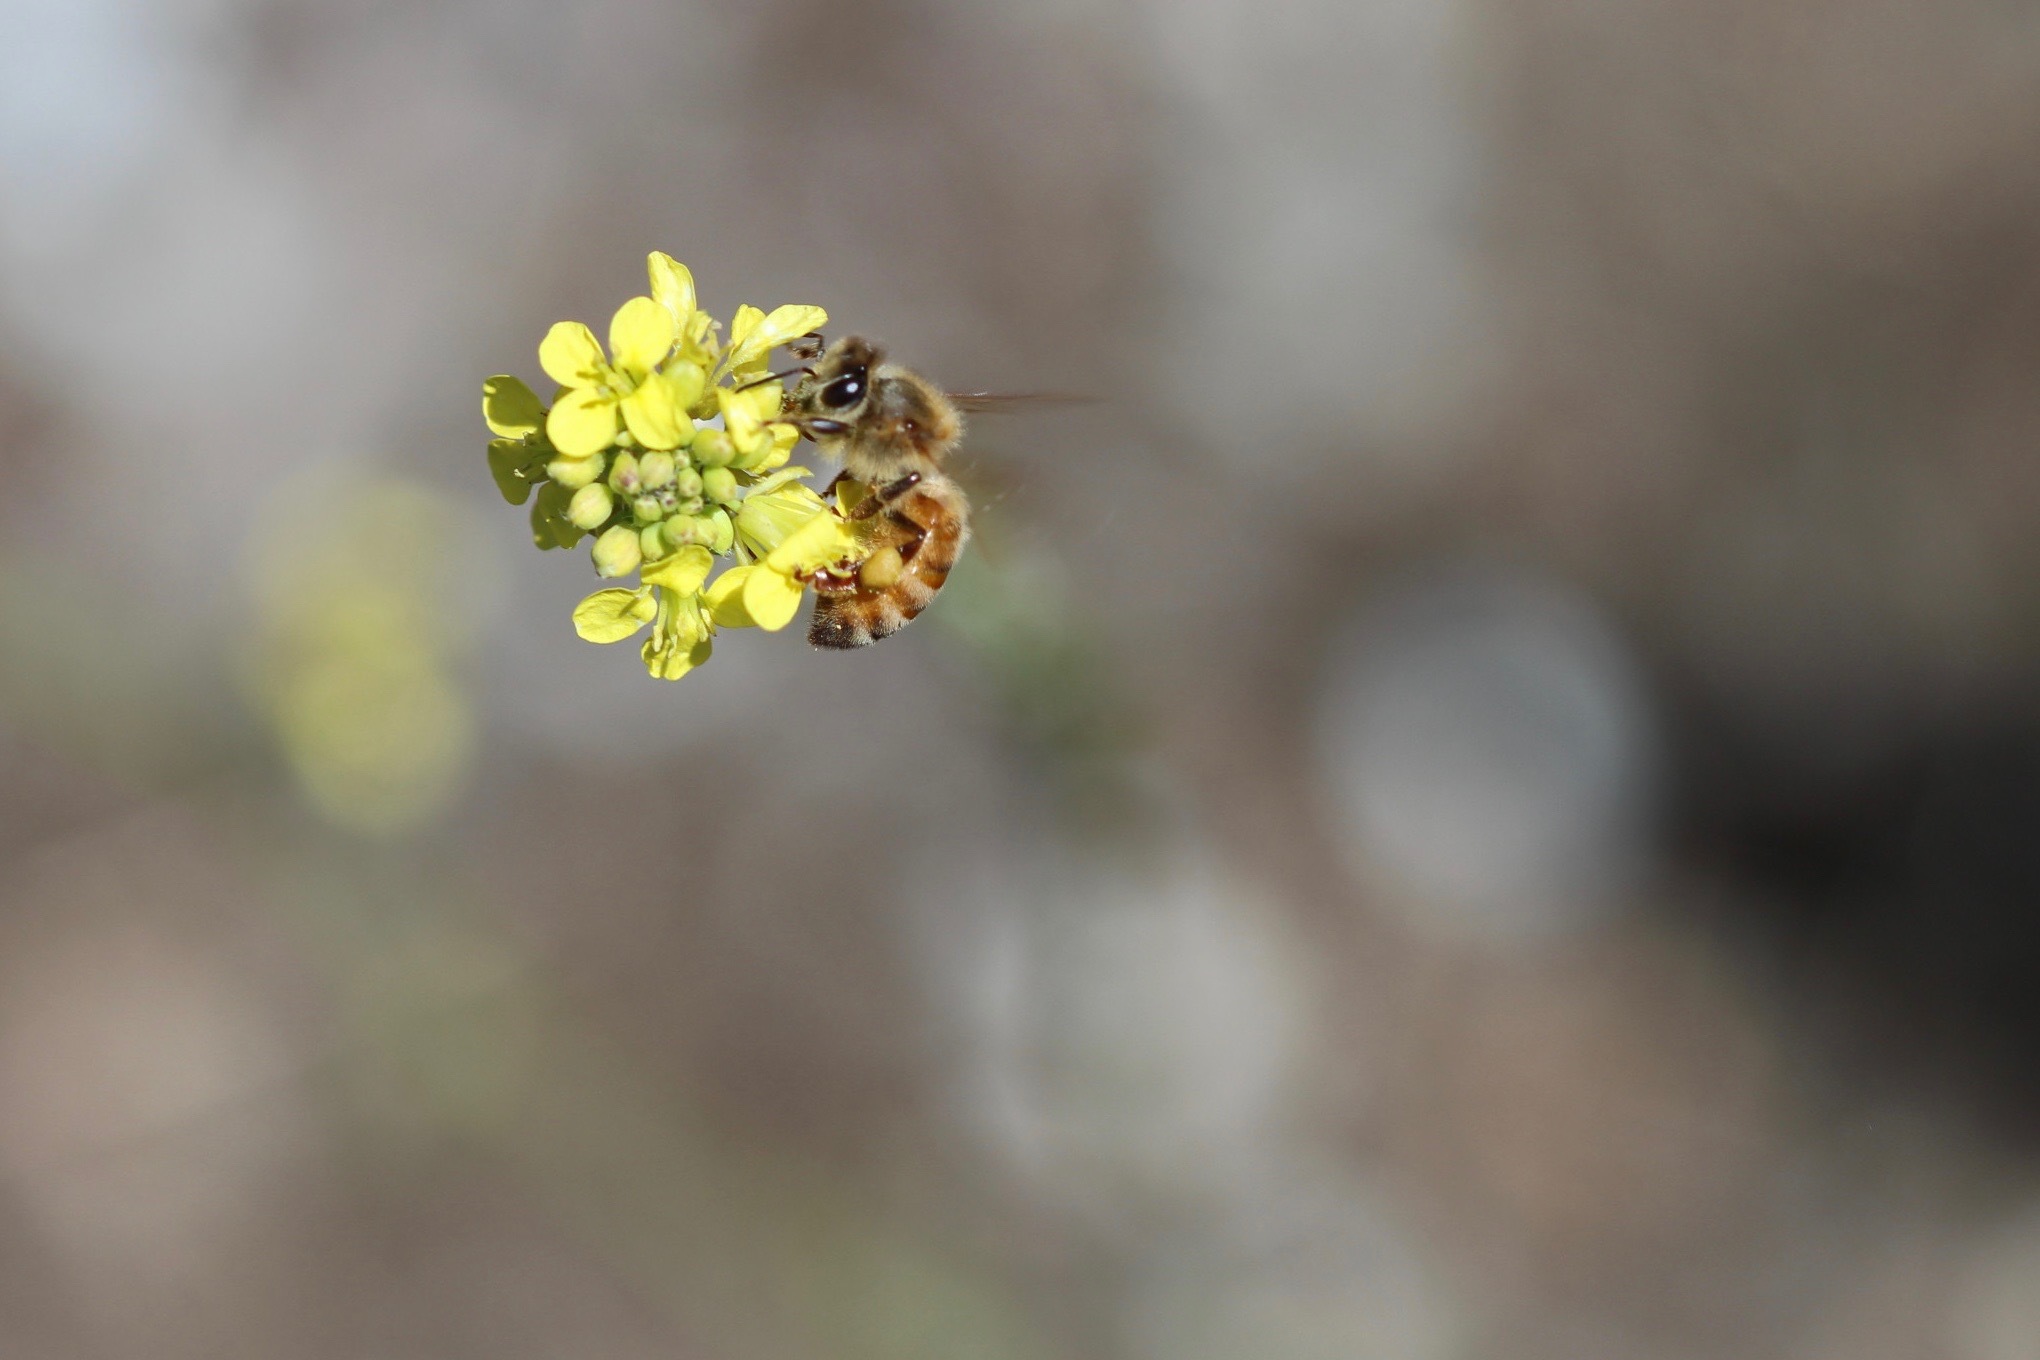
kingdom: Animalia
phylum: Arthropoda
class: Insecta
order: Hymenoptera
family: Apidae
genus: Apis
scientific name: Apis mellifera
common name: Honey bee
